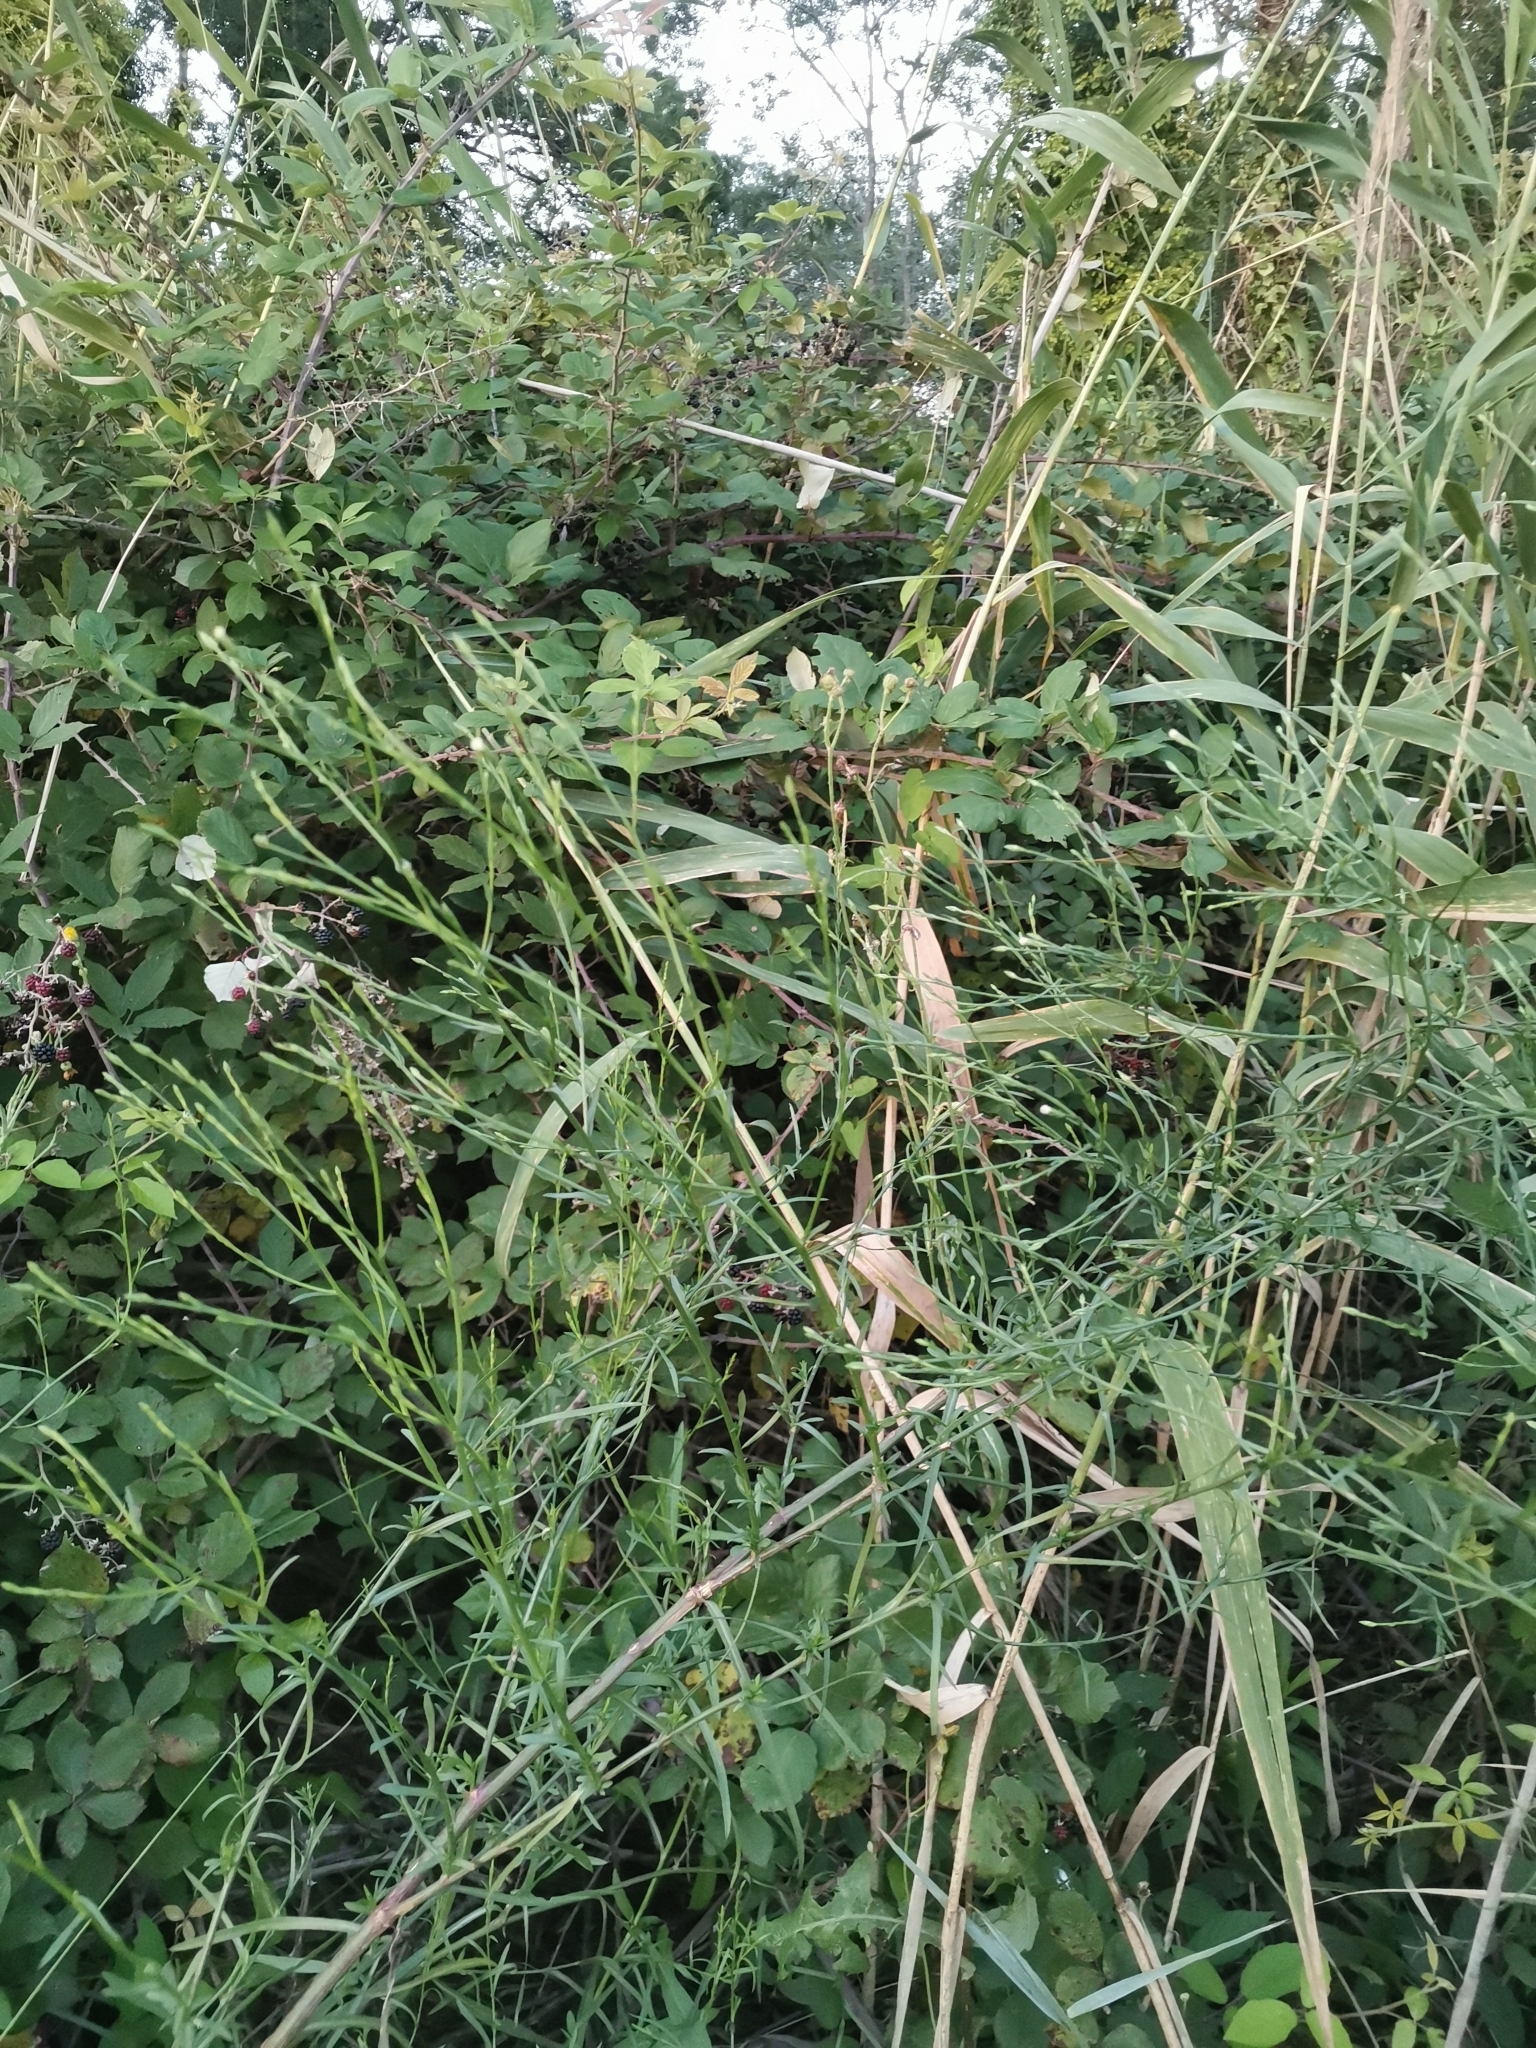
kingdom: Plantae
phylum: Tracheophyta
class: Magnoliopsida
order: Asterales
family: Asteraceae
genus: Symphyotrichum
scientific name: Symphyotrichum squamatum
